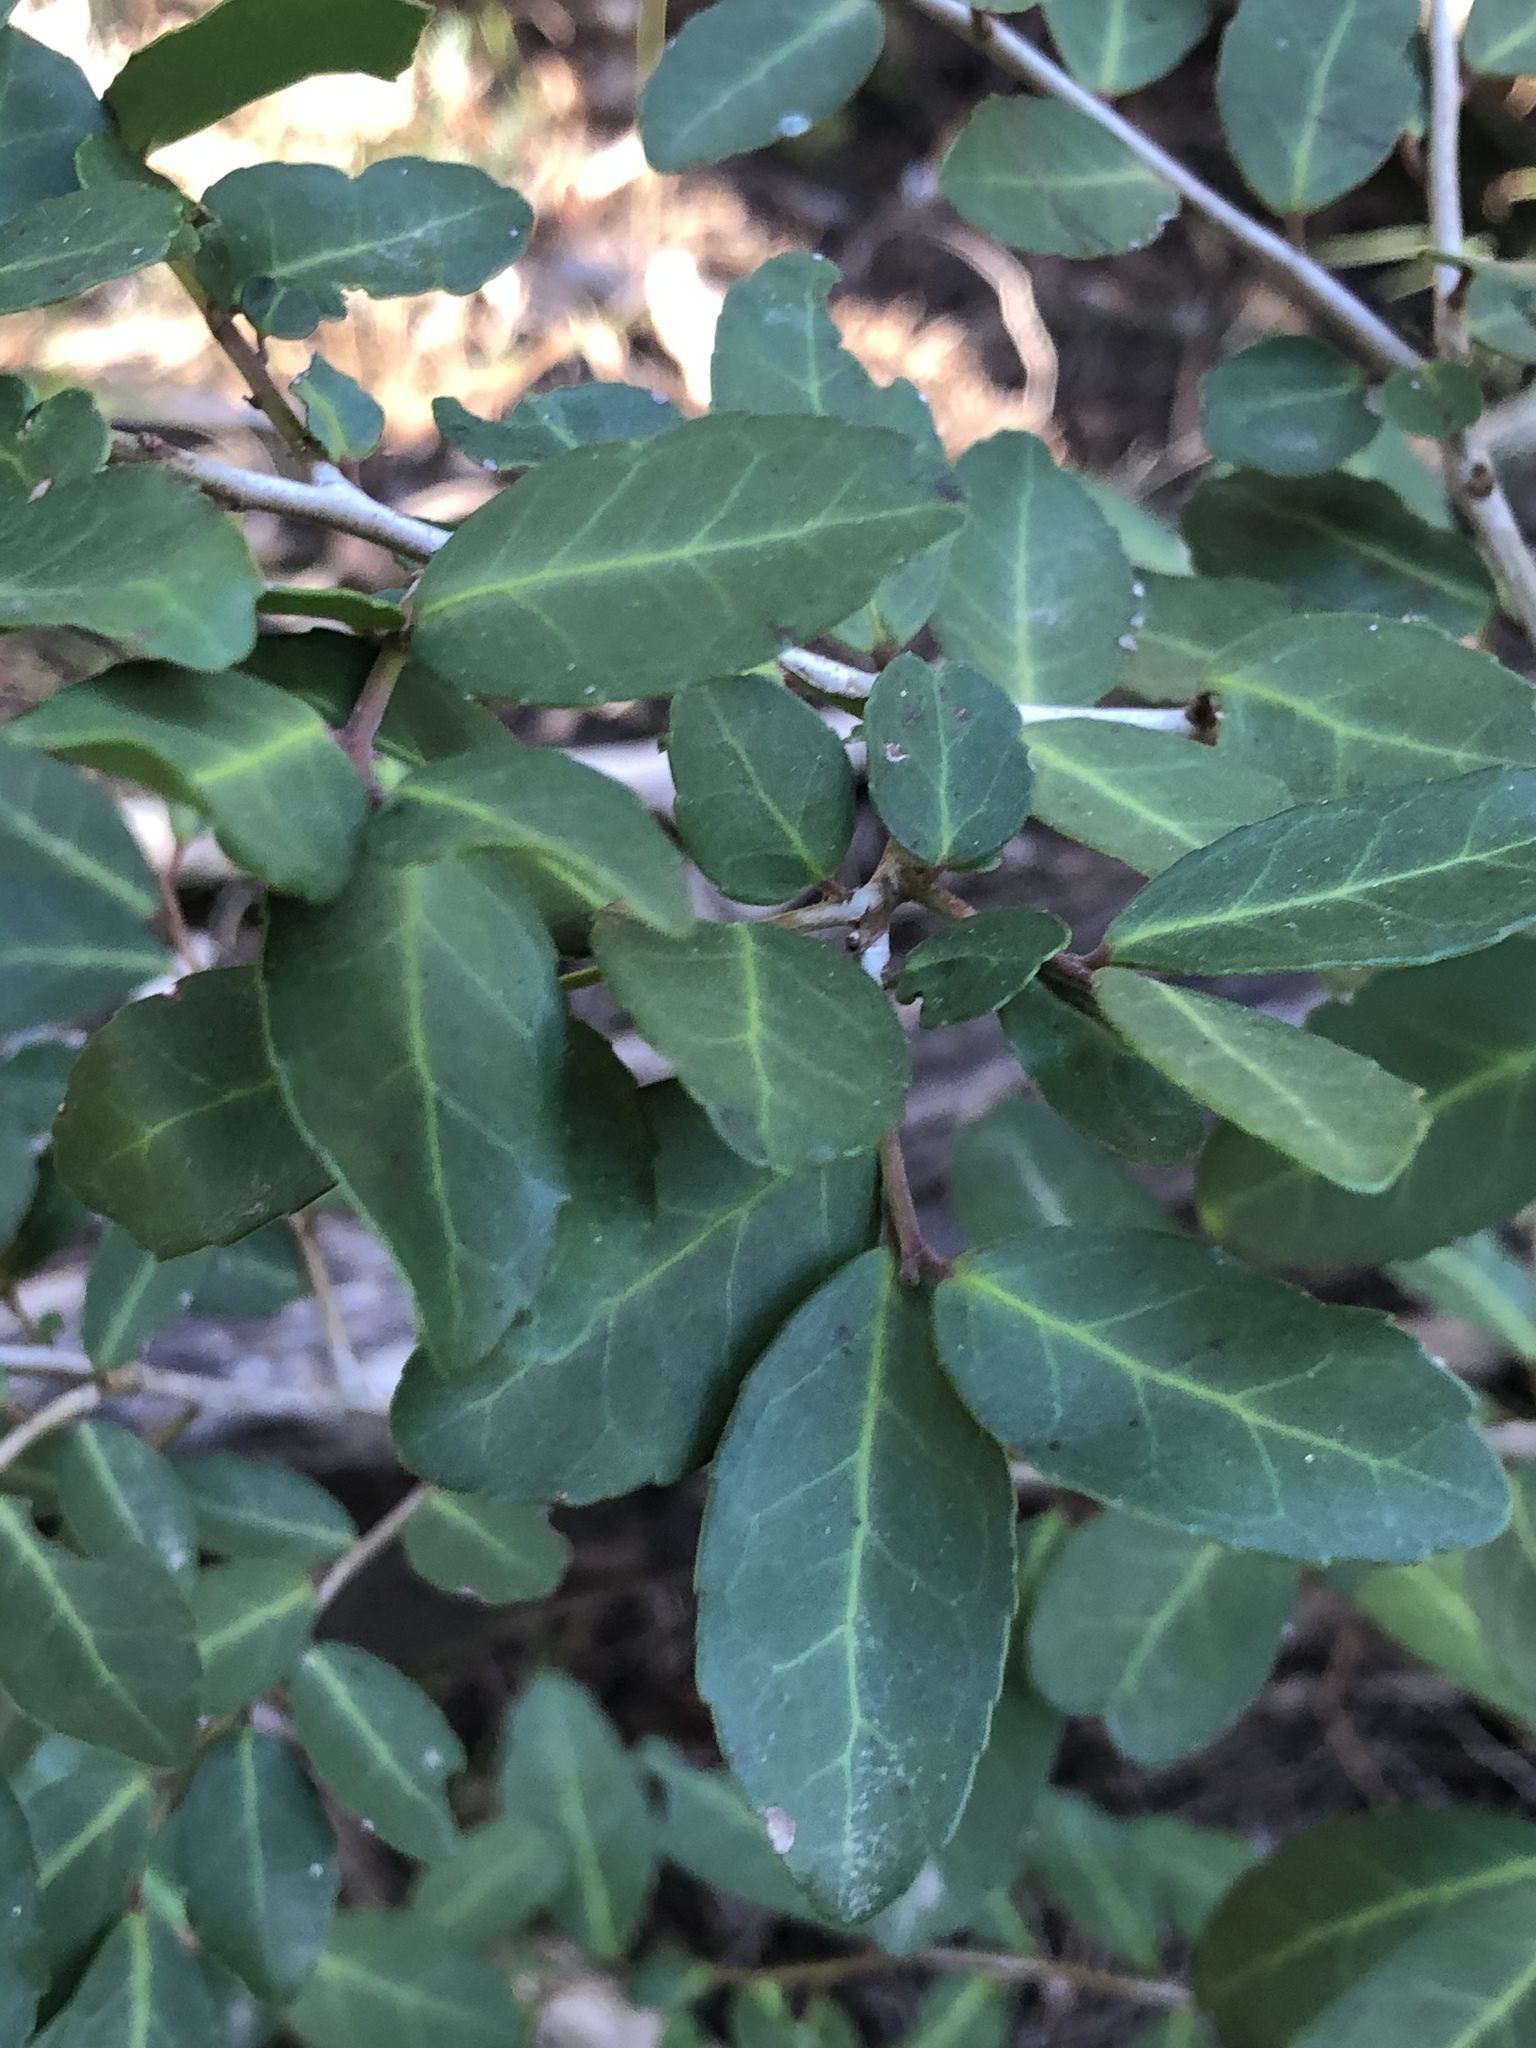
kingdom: Plantae
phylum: Tracheophyta
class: Magnoliopsida
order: Aquifoliales
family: Aquifoliaceae
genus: Ilex
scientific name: Ilex vomitoria
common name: Yaupon holly
